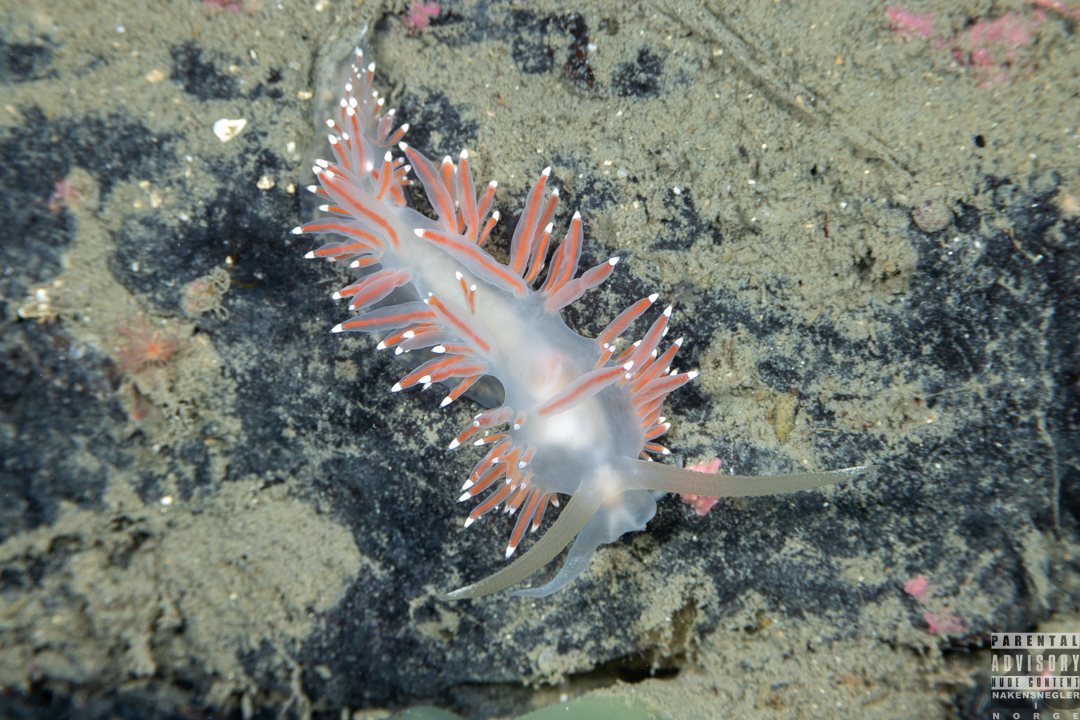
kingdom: Animalia
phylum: Mollusca
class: Gastropoda
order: Nudibranchia
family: Coryphellidae
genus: Coryphella
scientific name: Coryphella browni
